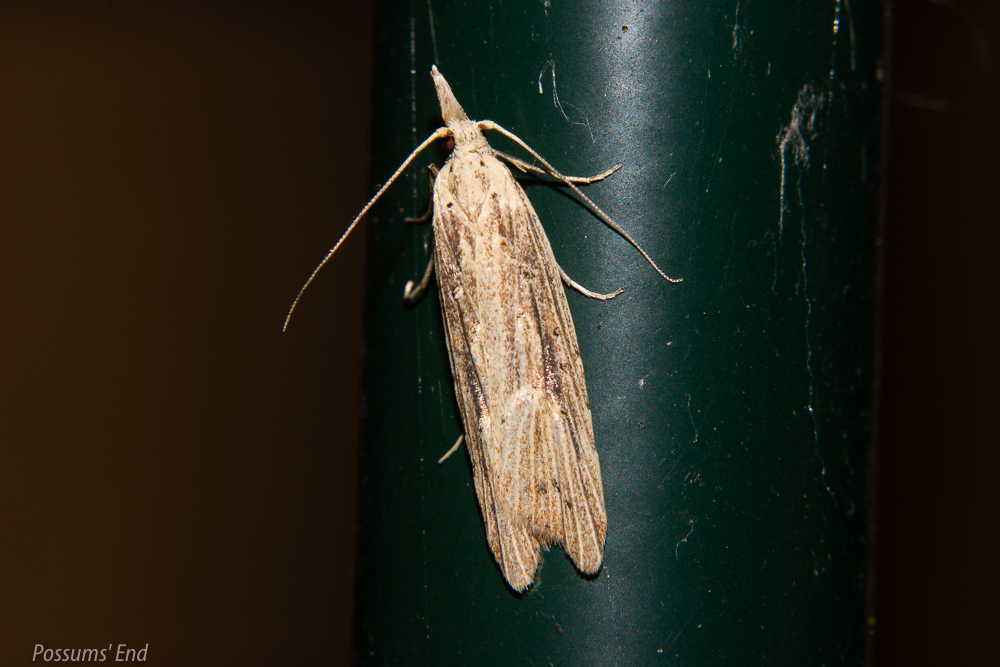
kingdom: Animalia
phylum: Arthropoda
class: Insecta
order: Lepidoptera
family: Carposinidae
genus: Carposina
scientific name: Carposina Heterocrossa exochana
